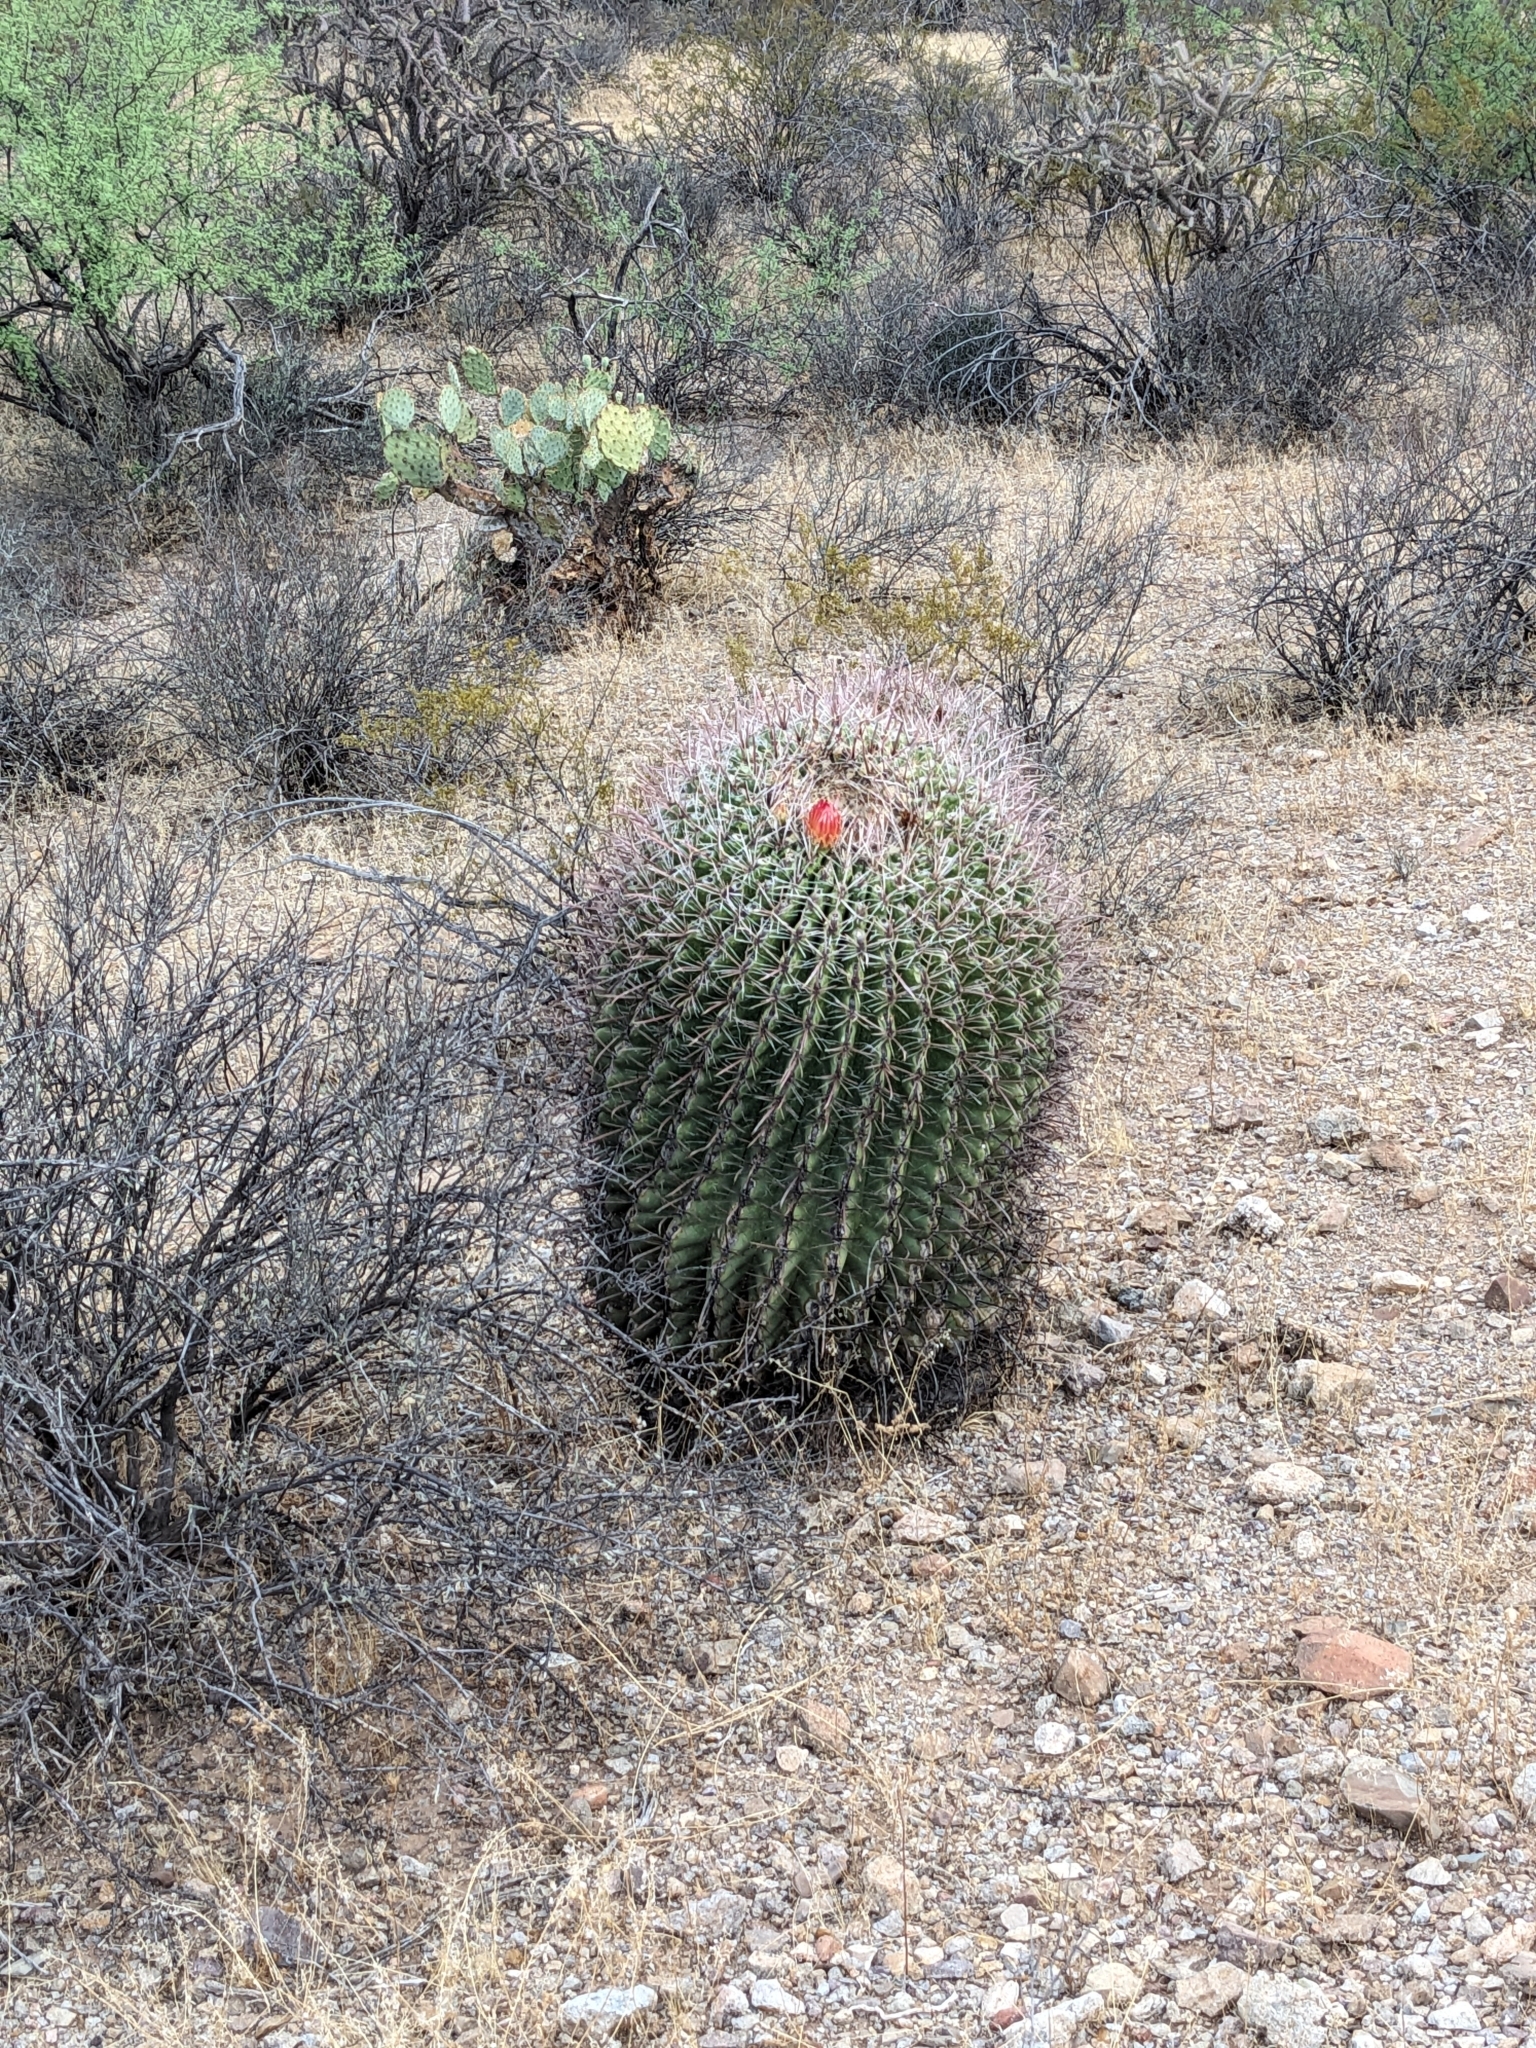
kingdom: Plantae
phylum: Tracheophyta
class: Magnoliopsida
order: Caryophyllales
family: Cactaceae
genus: Ferocactus
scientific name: Ferocactus wislizeni
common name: Candy barrel cactus
